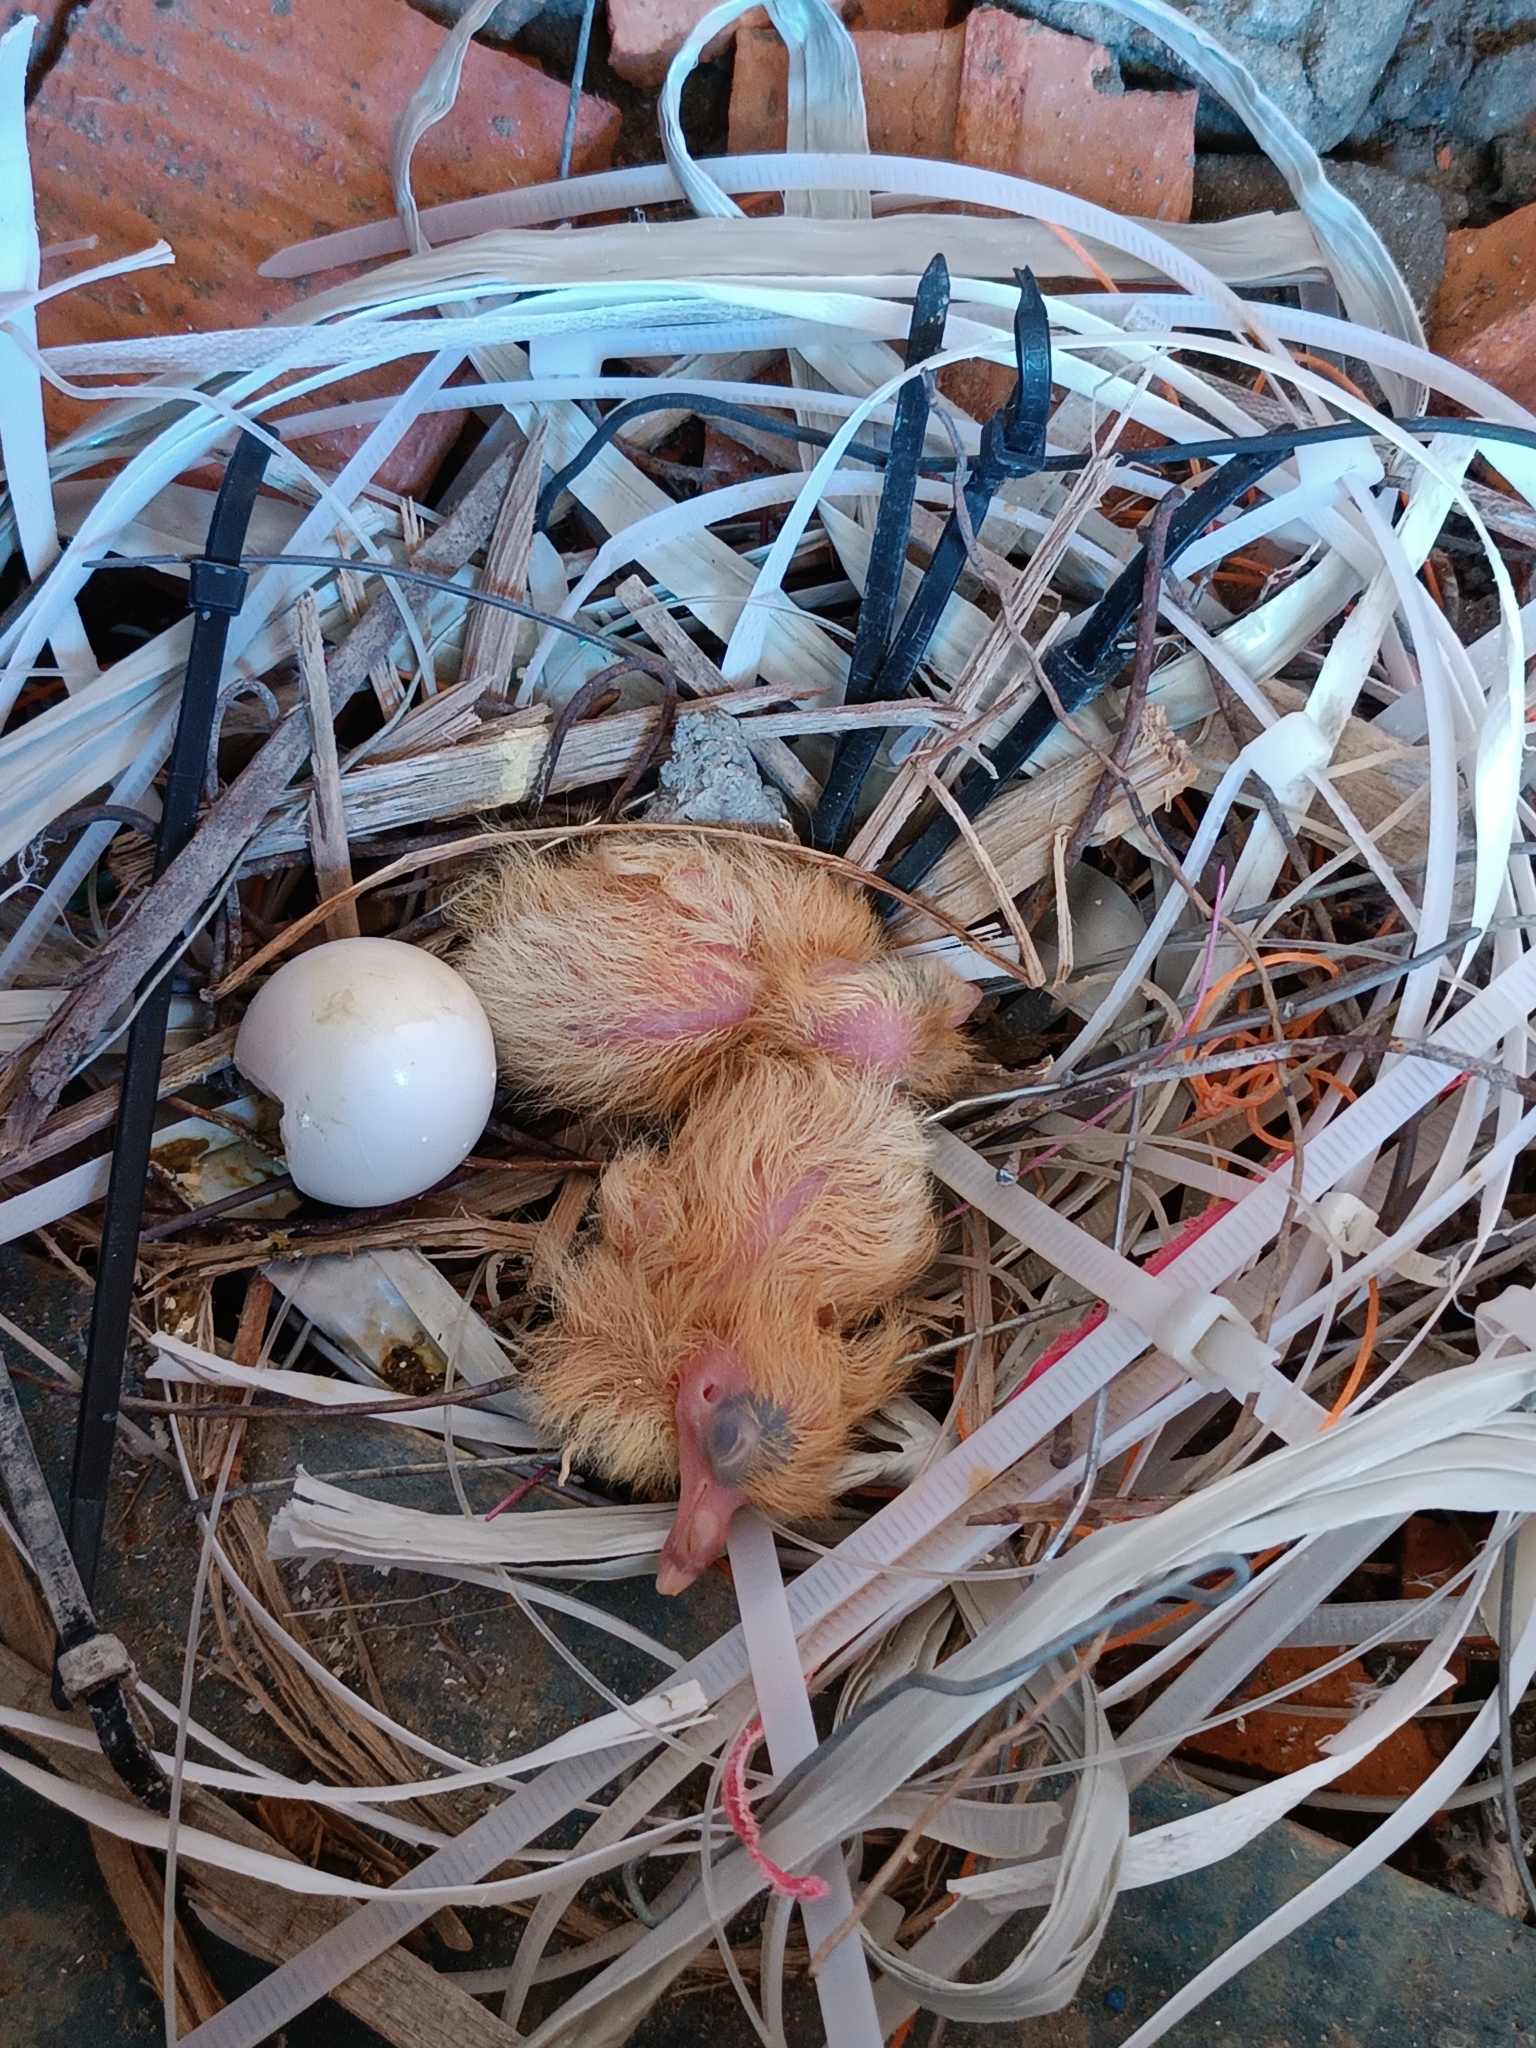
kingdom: Animalia
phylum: Chordata
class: Aves
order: Columbiformes
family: Columbidae
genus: Columba
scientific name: Columba livia
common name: Rock pigeon
